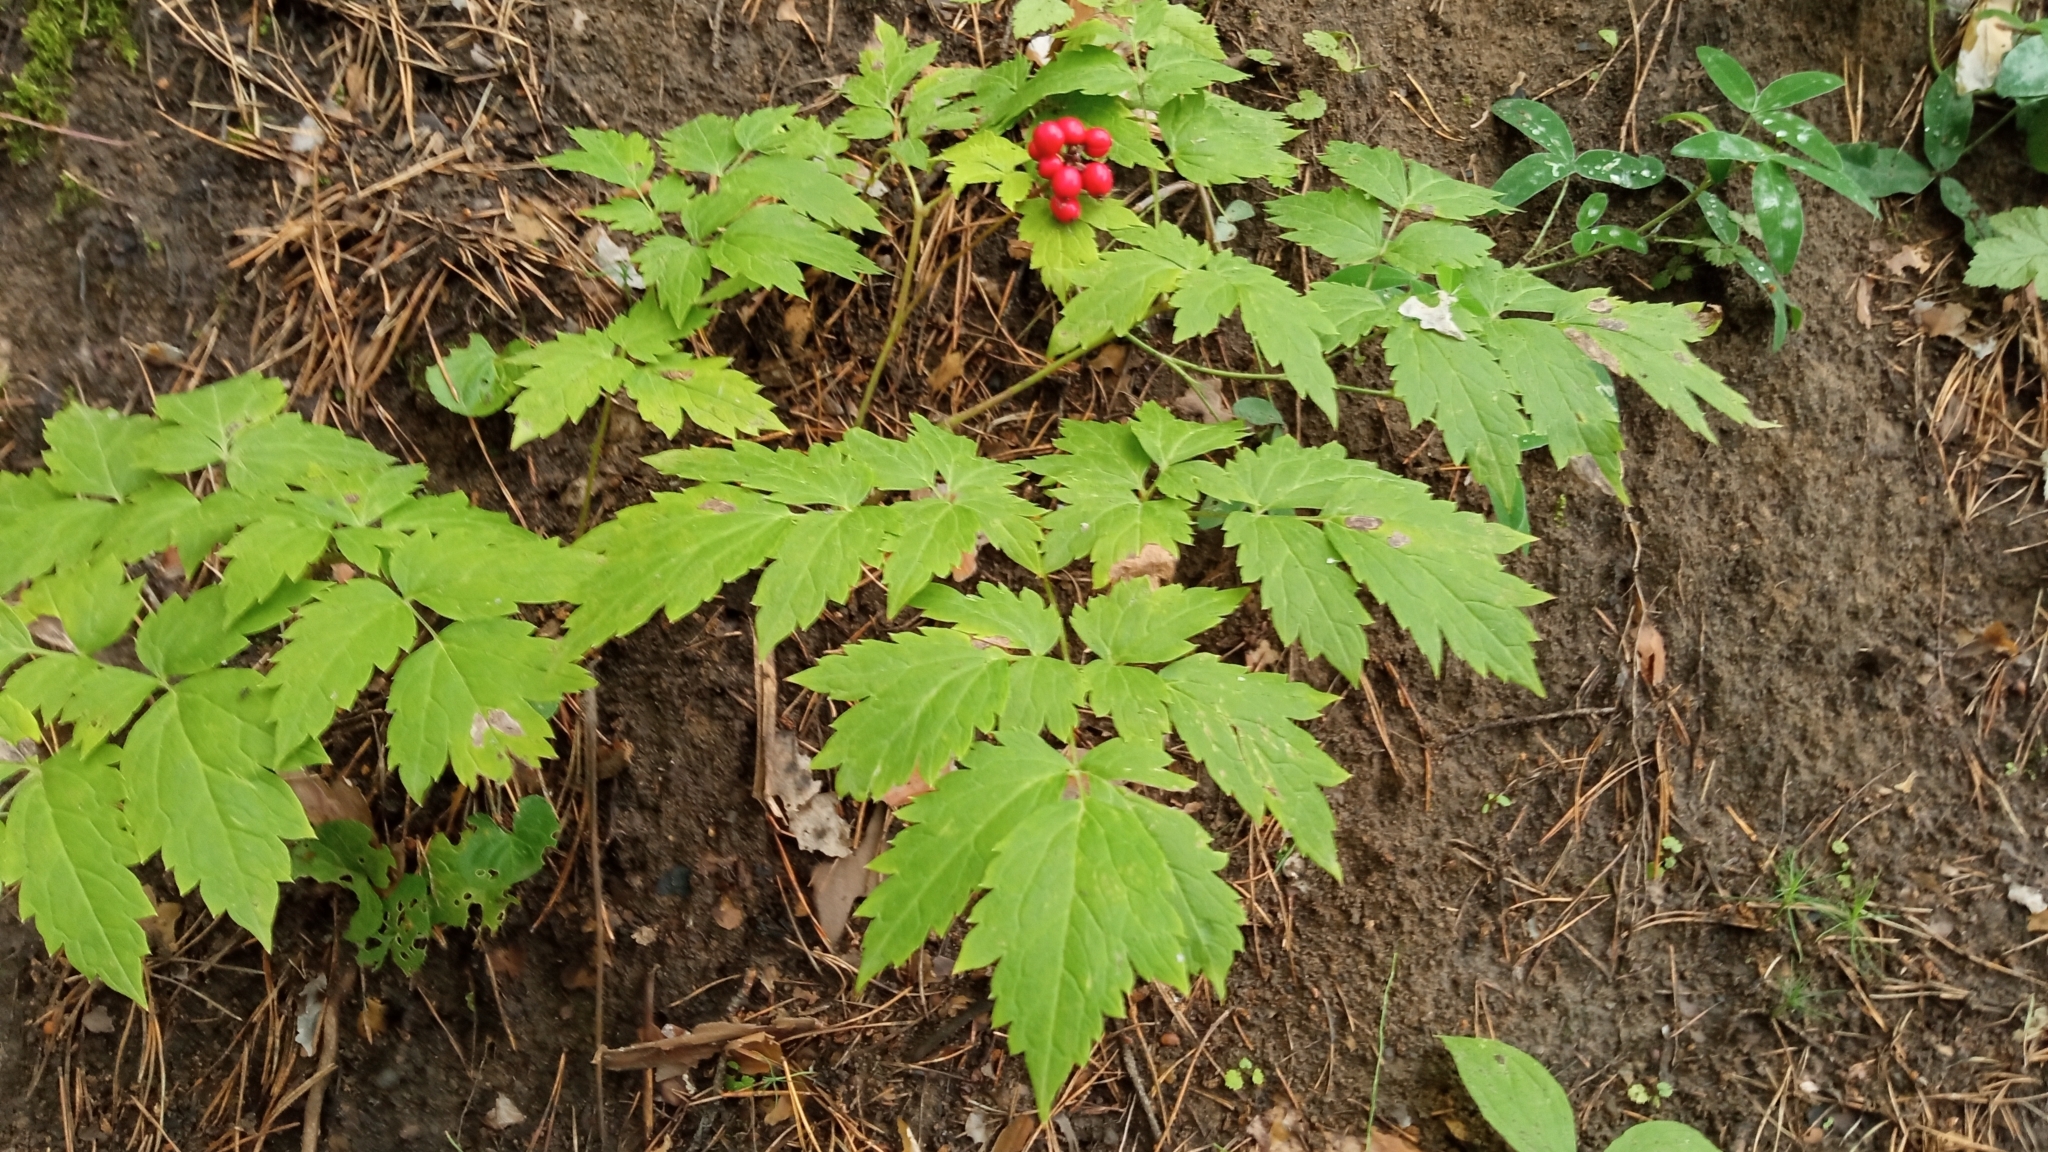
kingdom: Plantae
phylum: Tracheophyta
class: Magnoliopsida
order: Ranunculales
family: Ranunculaceae
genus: Actaea
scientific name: Actaea erythrocarpa
